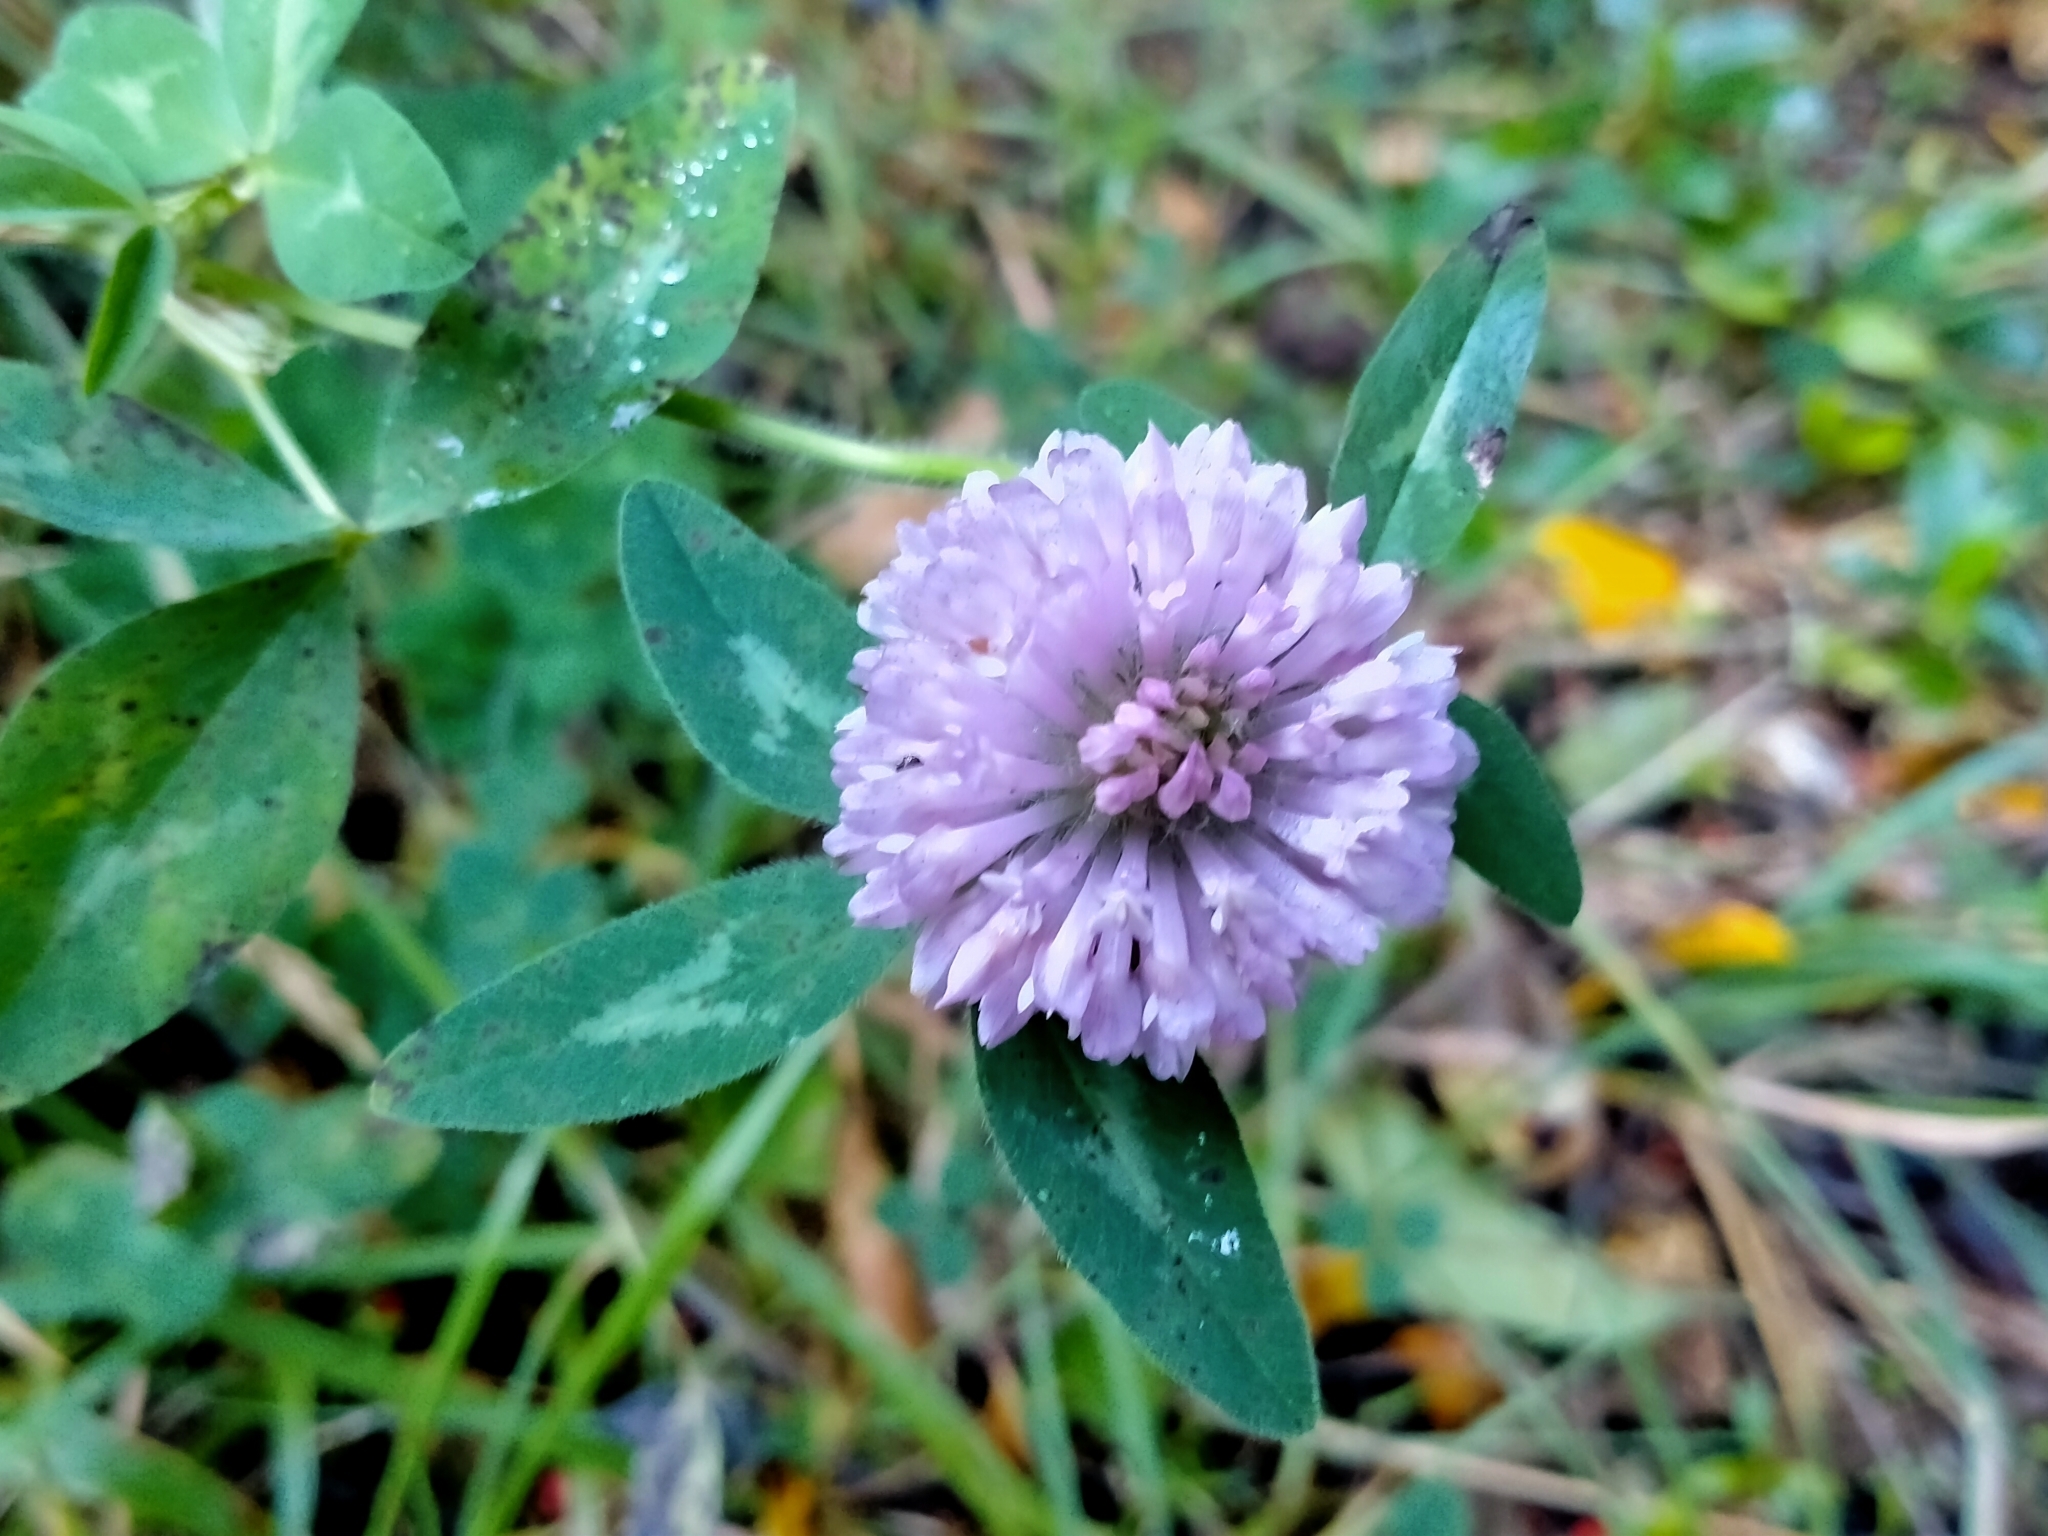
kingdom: Plantae
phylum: Tracheophyta
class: Magnoliopsida
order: Fabales
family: Fabaceae
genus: Trifolium
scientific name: Trifolium pratense
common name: Red clover
